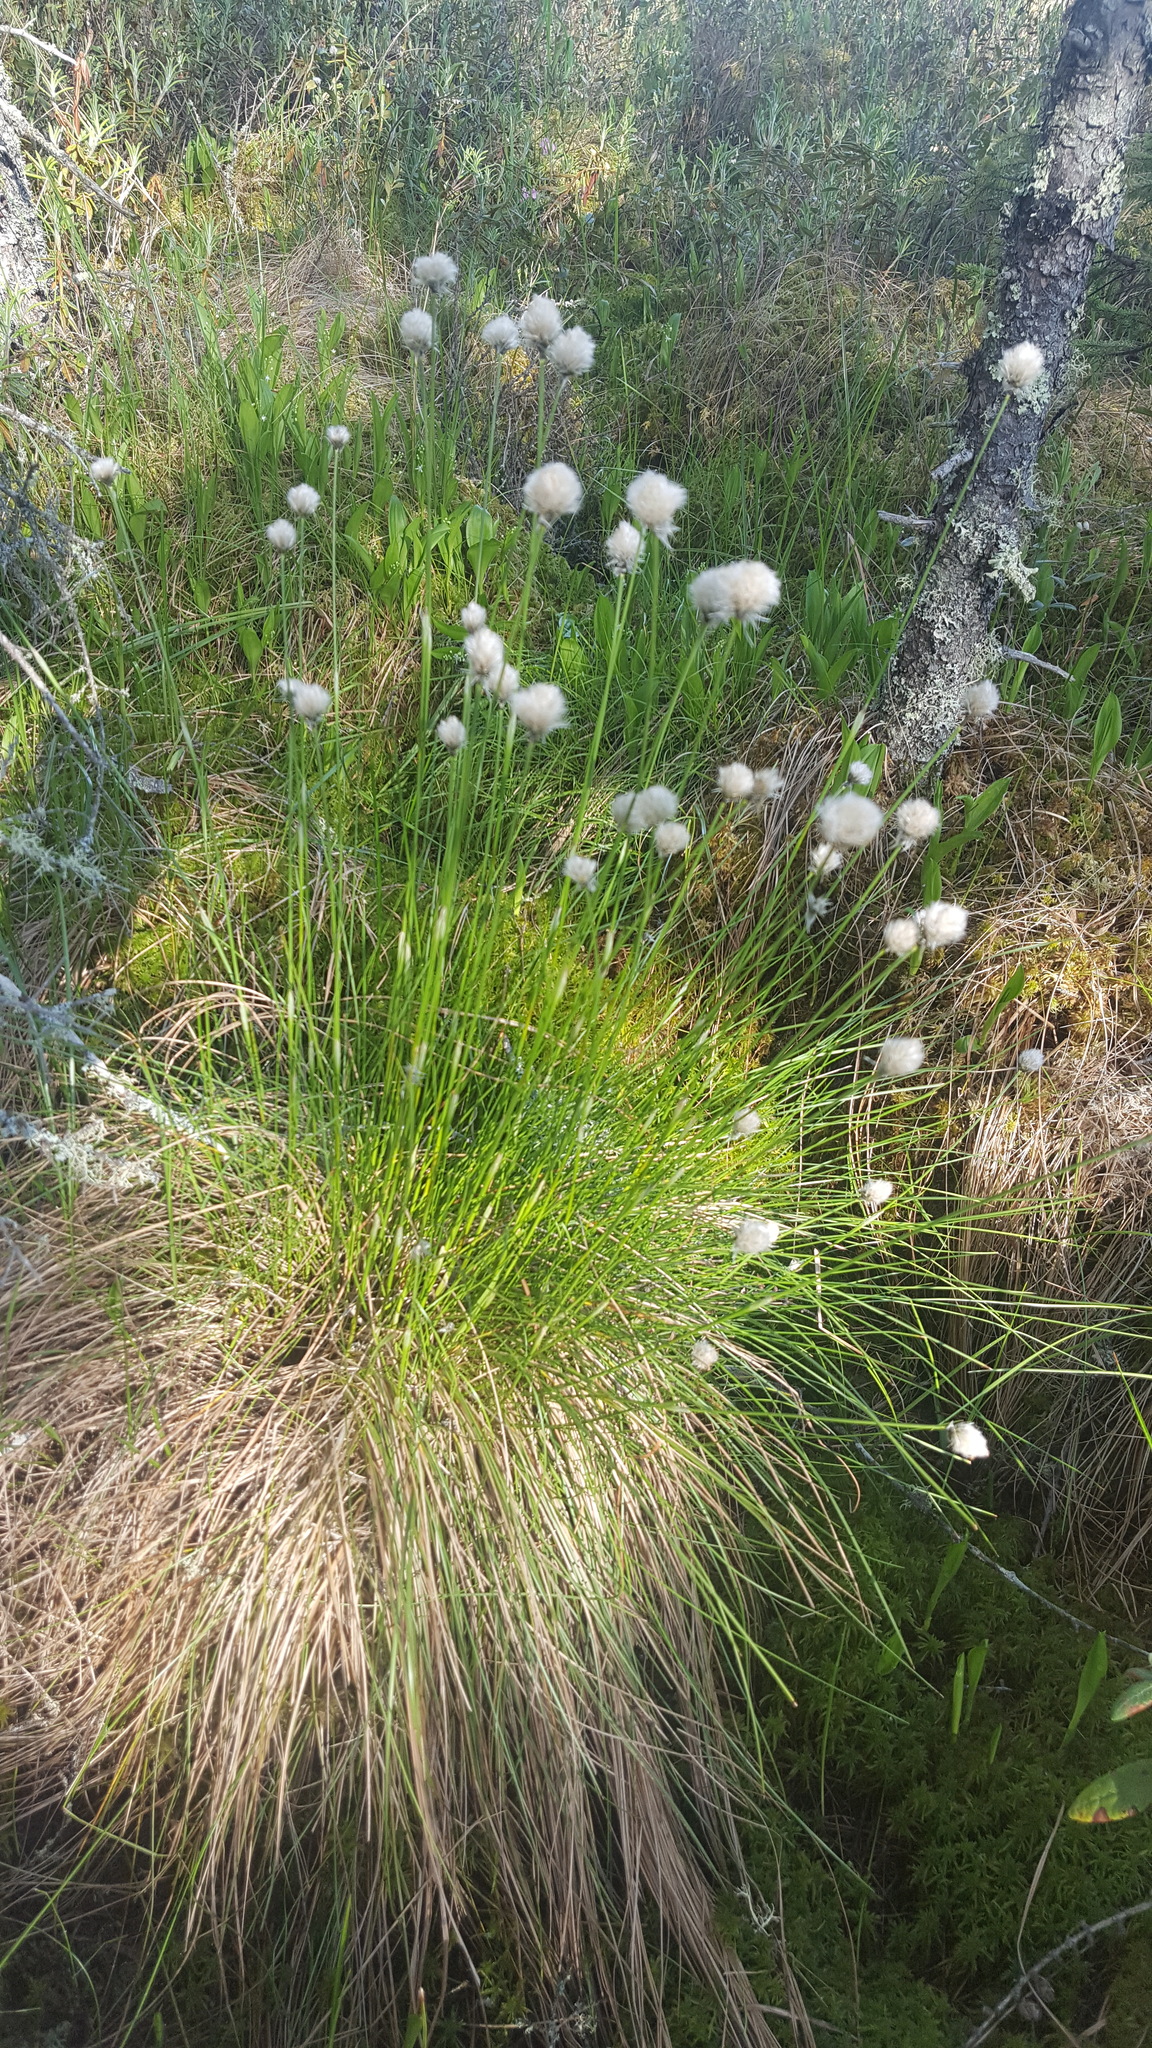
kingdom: Plantae
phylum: Tracheophyta
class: Liliopsida
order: Poales
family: Cyperaceae
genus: Eriophorum
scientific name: Eriophorum vaginatum
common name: Hare's-tail cottongrass
